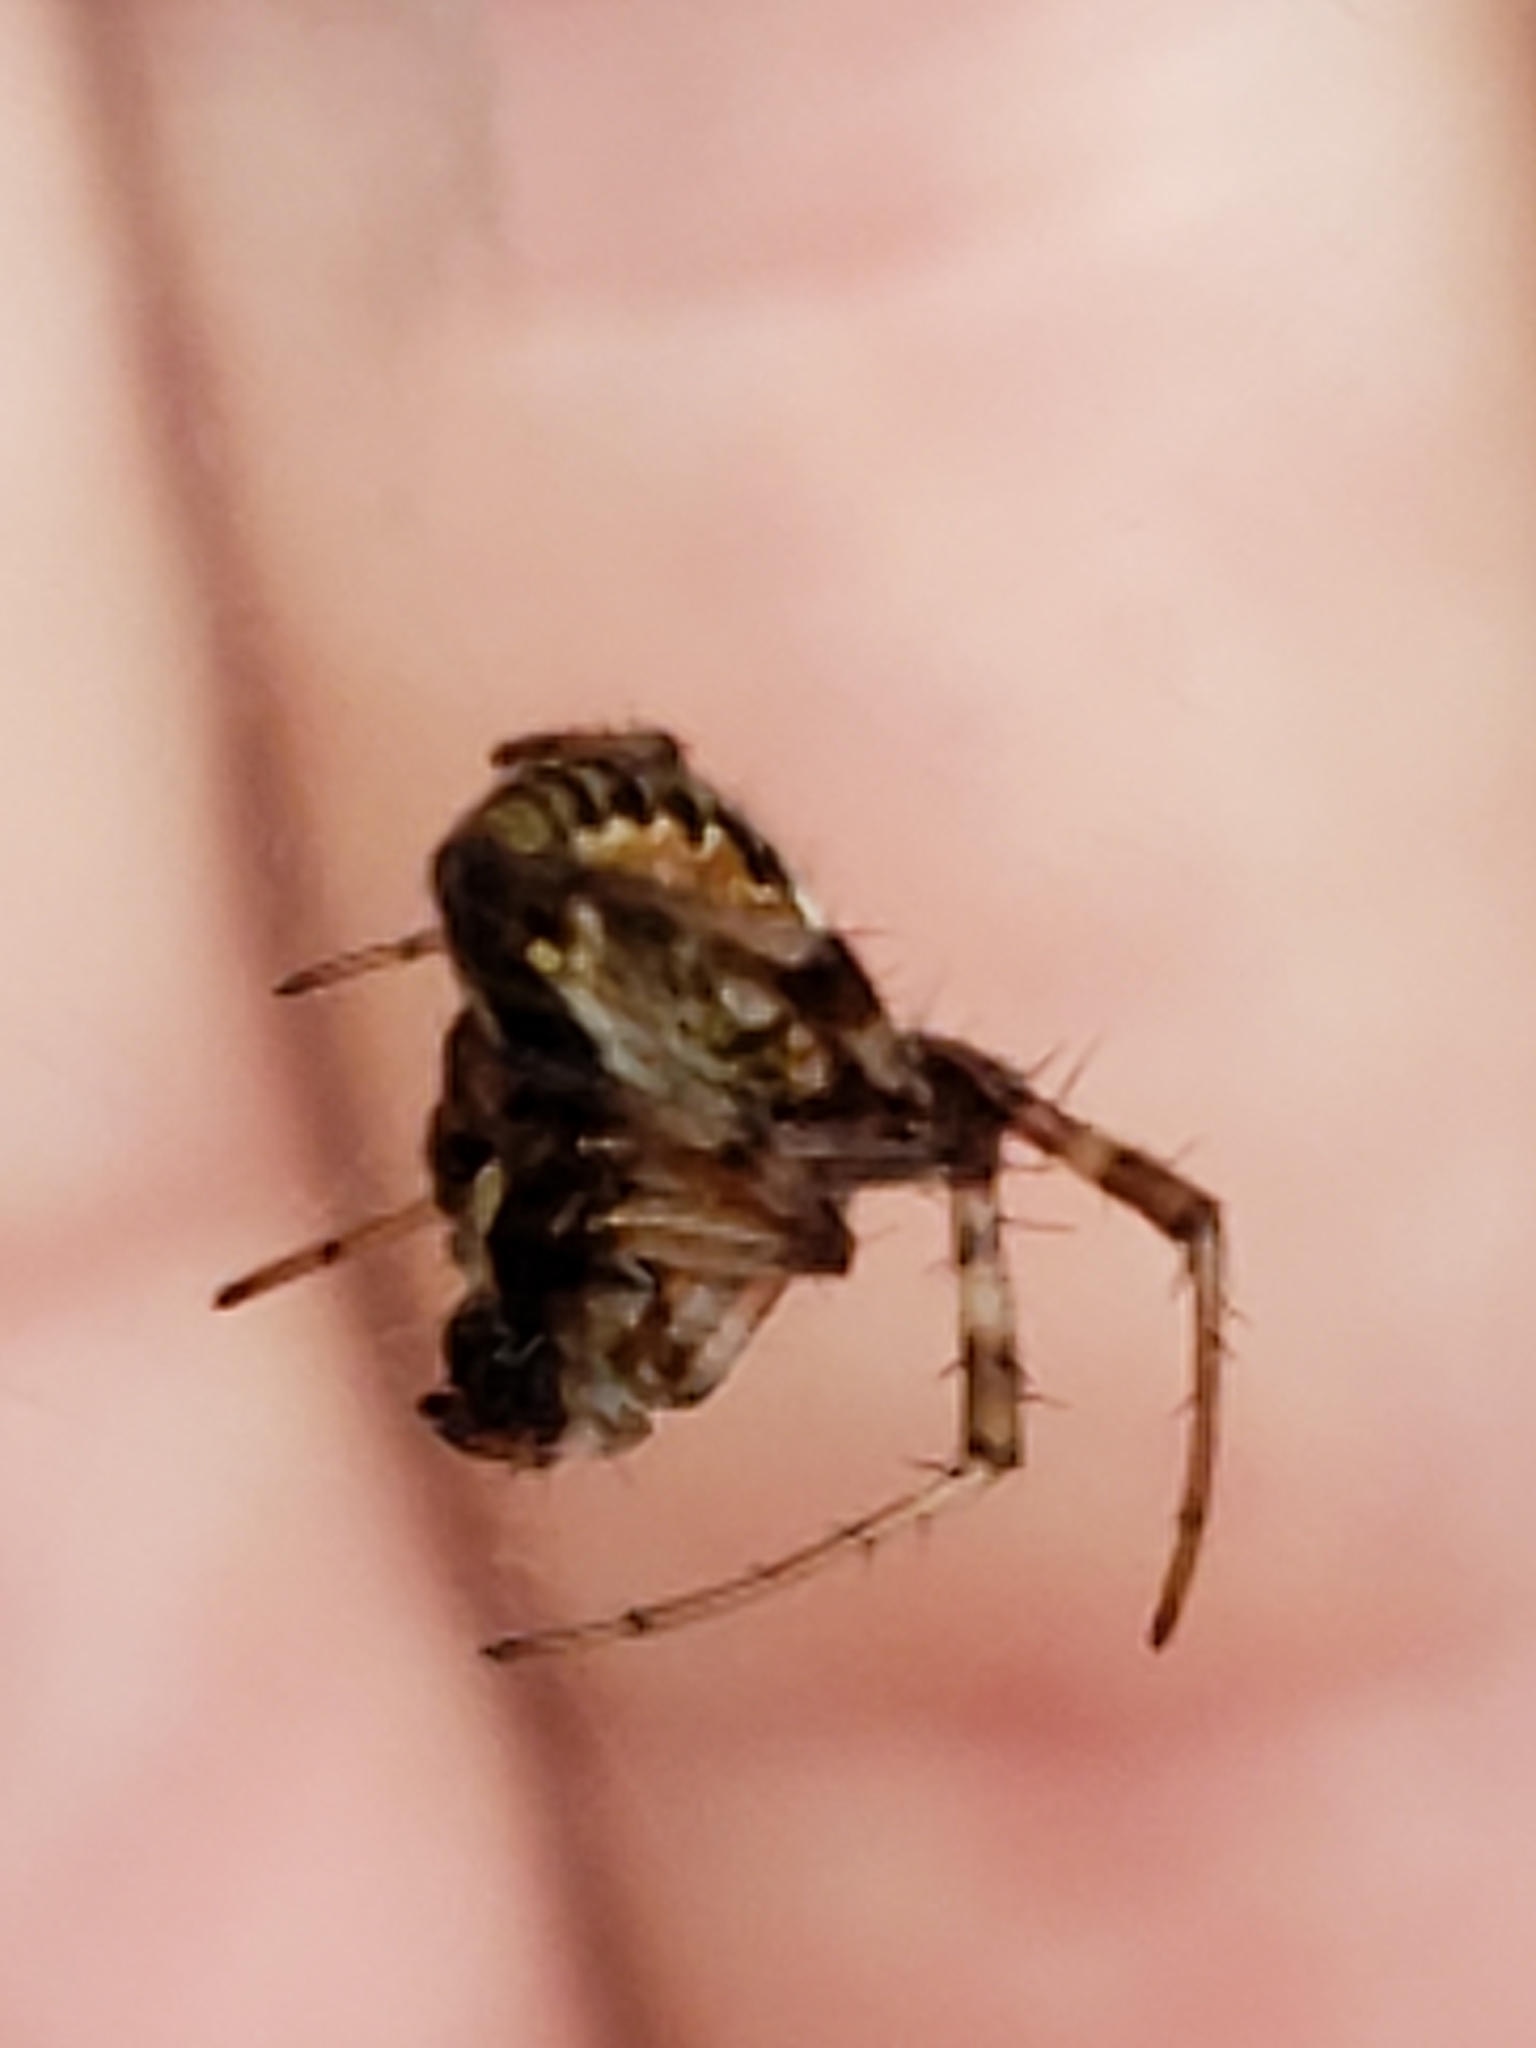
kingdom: Animalia
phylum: Arthropoda
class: Arachnida
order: Araneae
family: Araneidae
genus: Metepeira
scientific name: Metepeira labyrinthea
